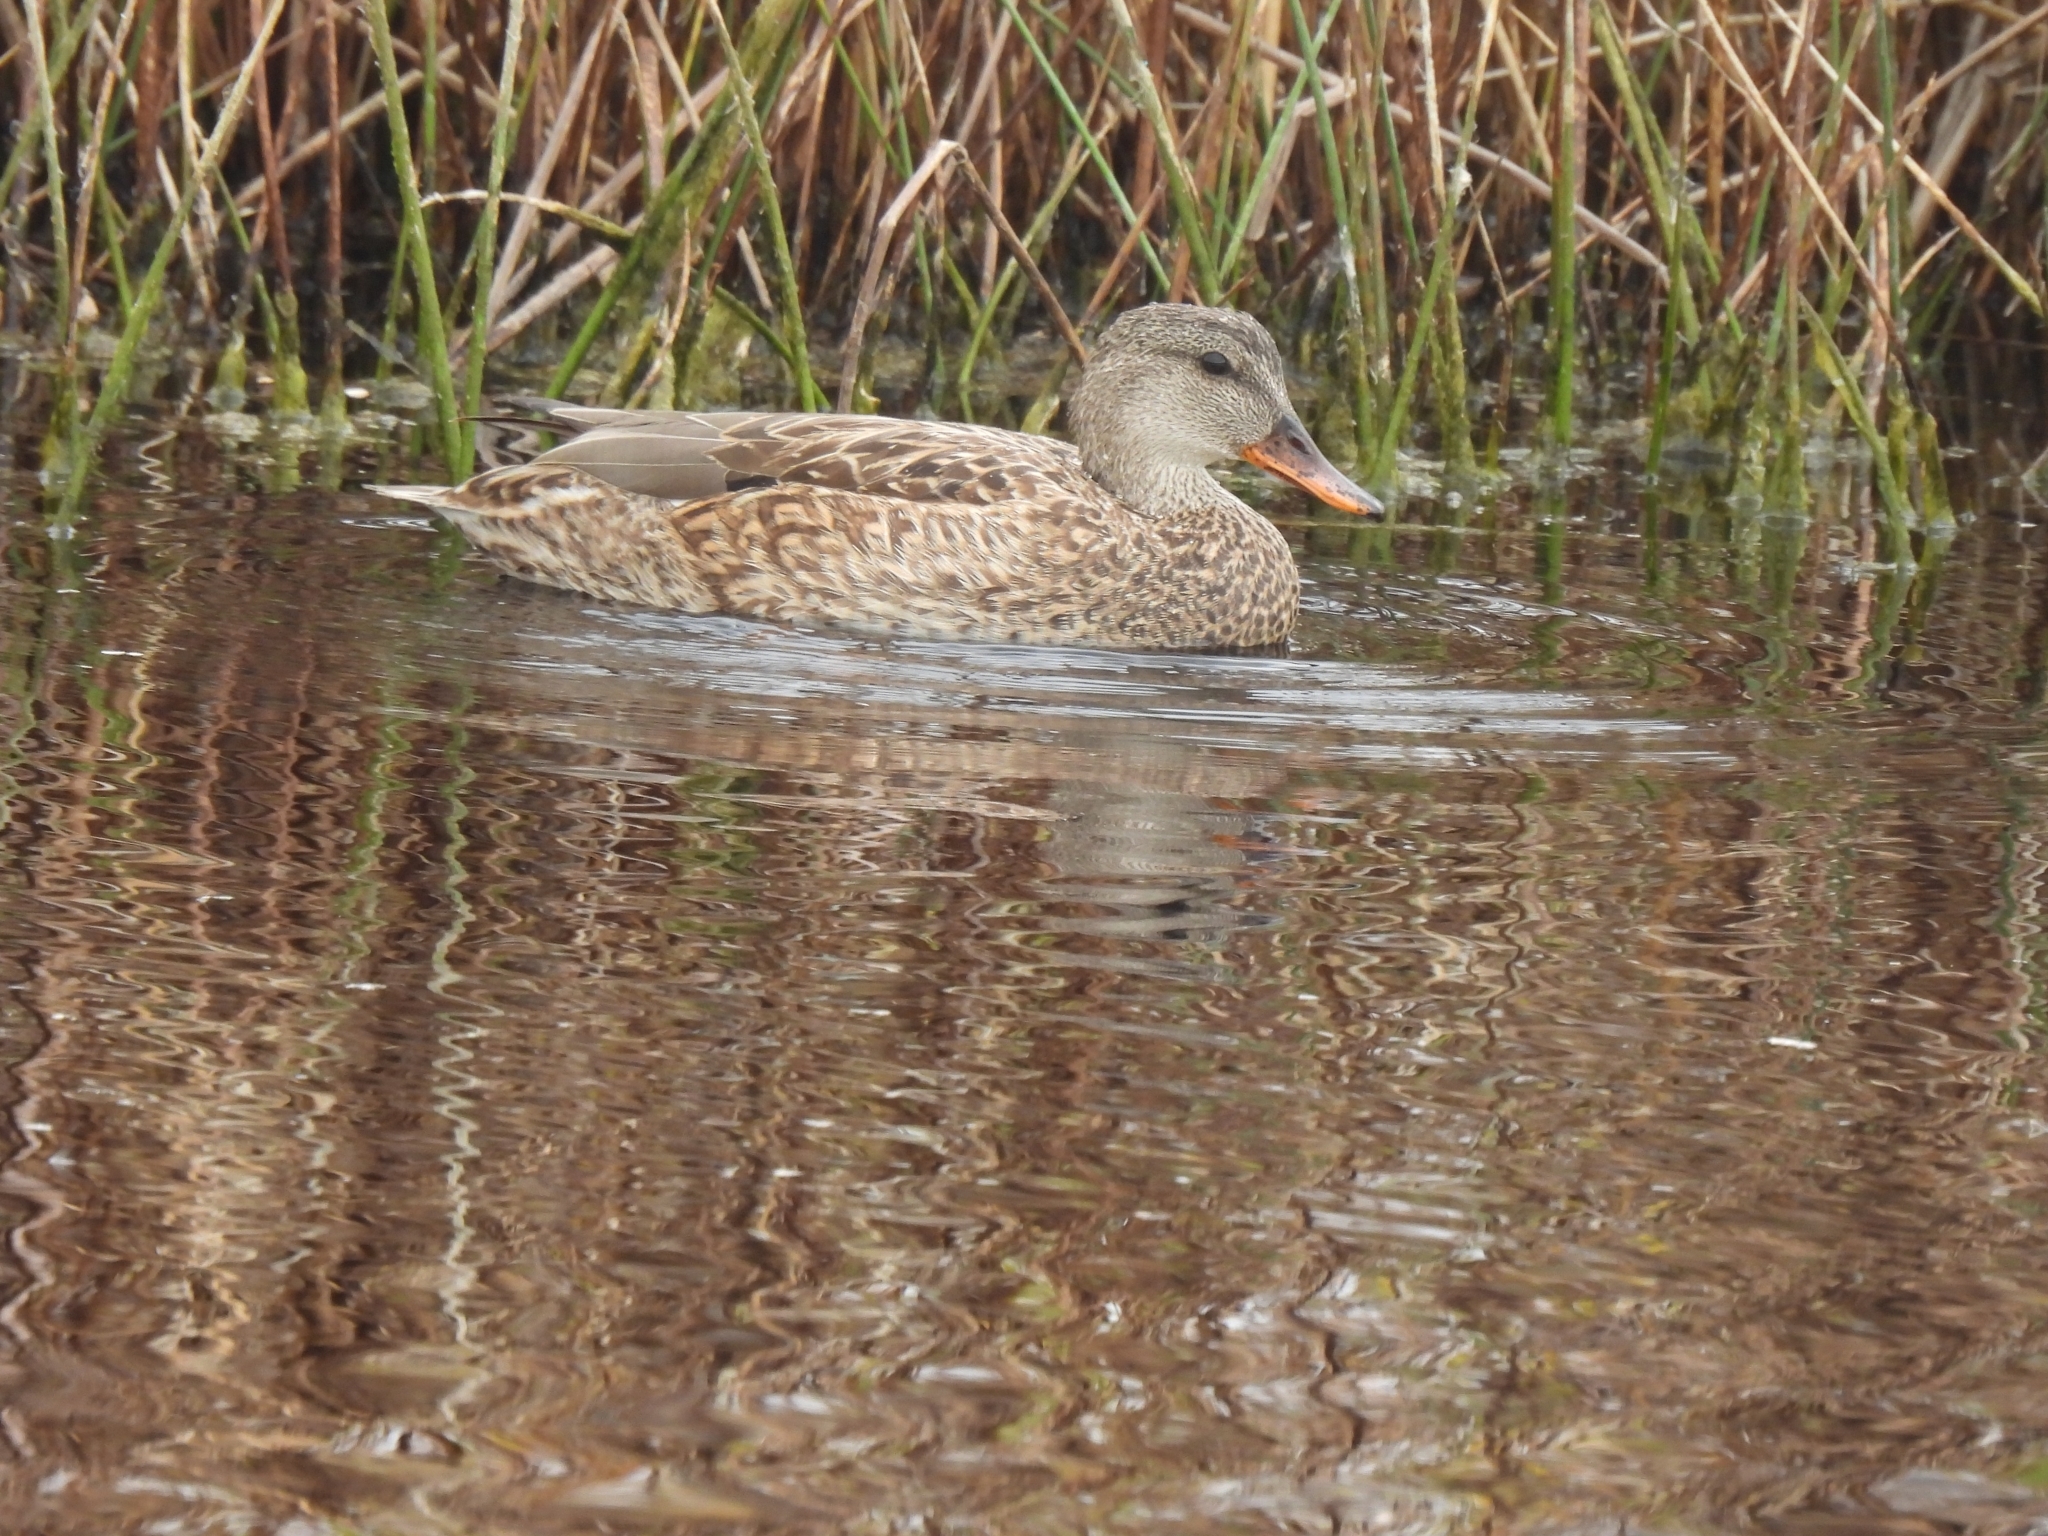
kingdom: Animalia
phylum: Chordata
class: Aves
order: Anseriformes
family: Anatidae
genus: Mareca
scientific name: Mareca strepera
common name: Gadwall
